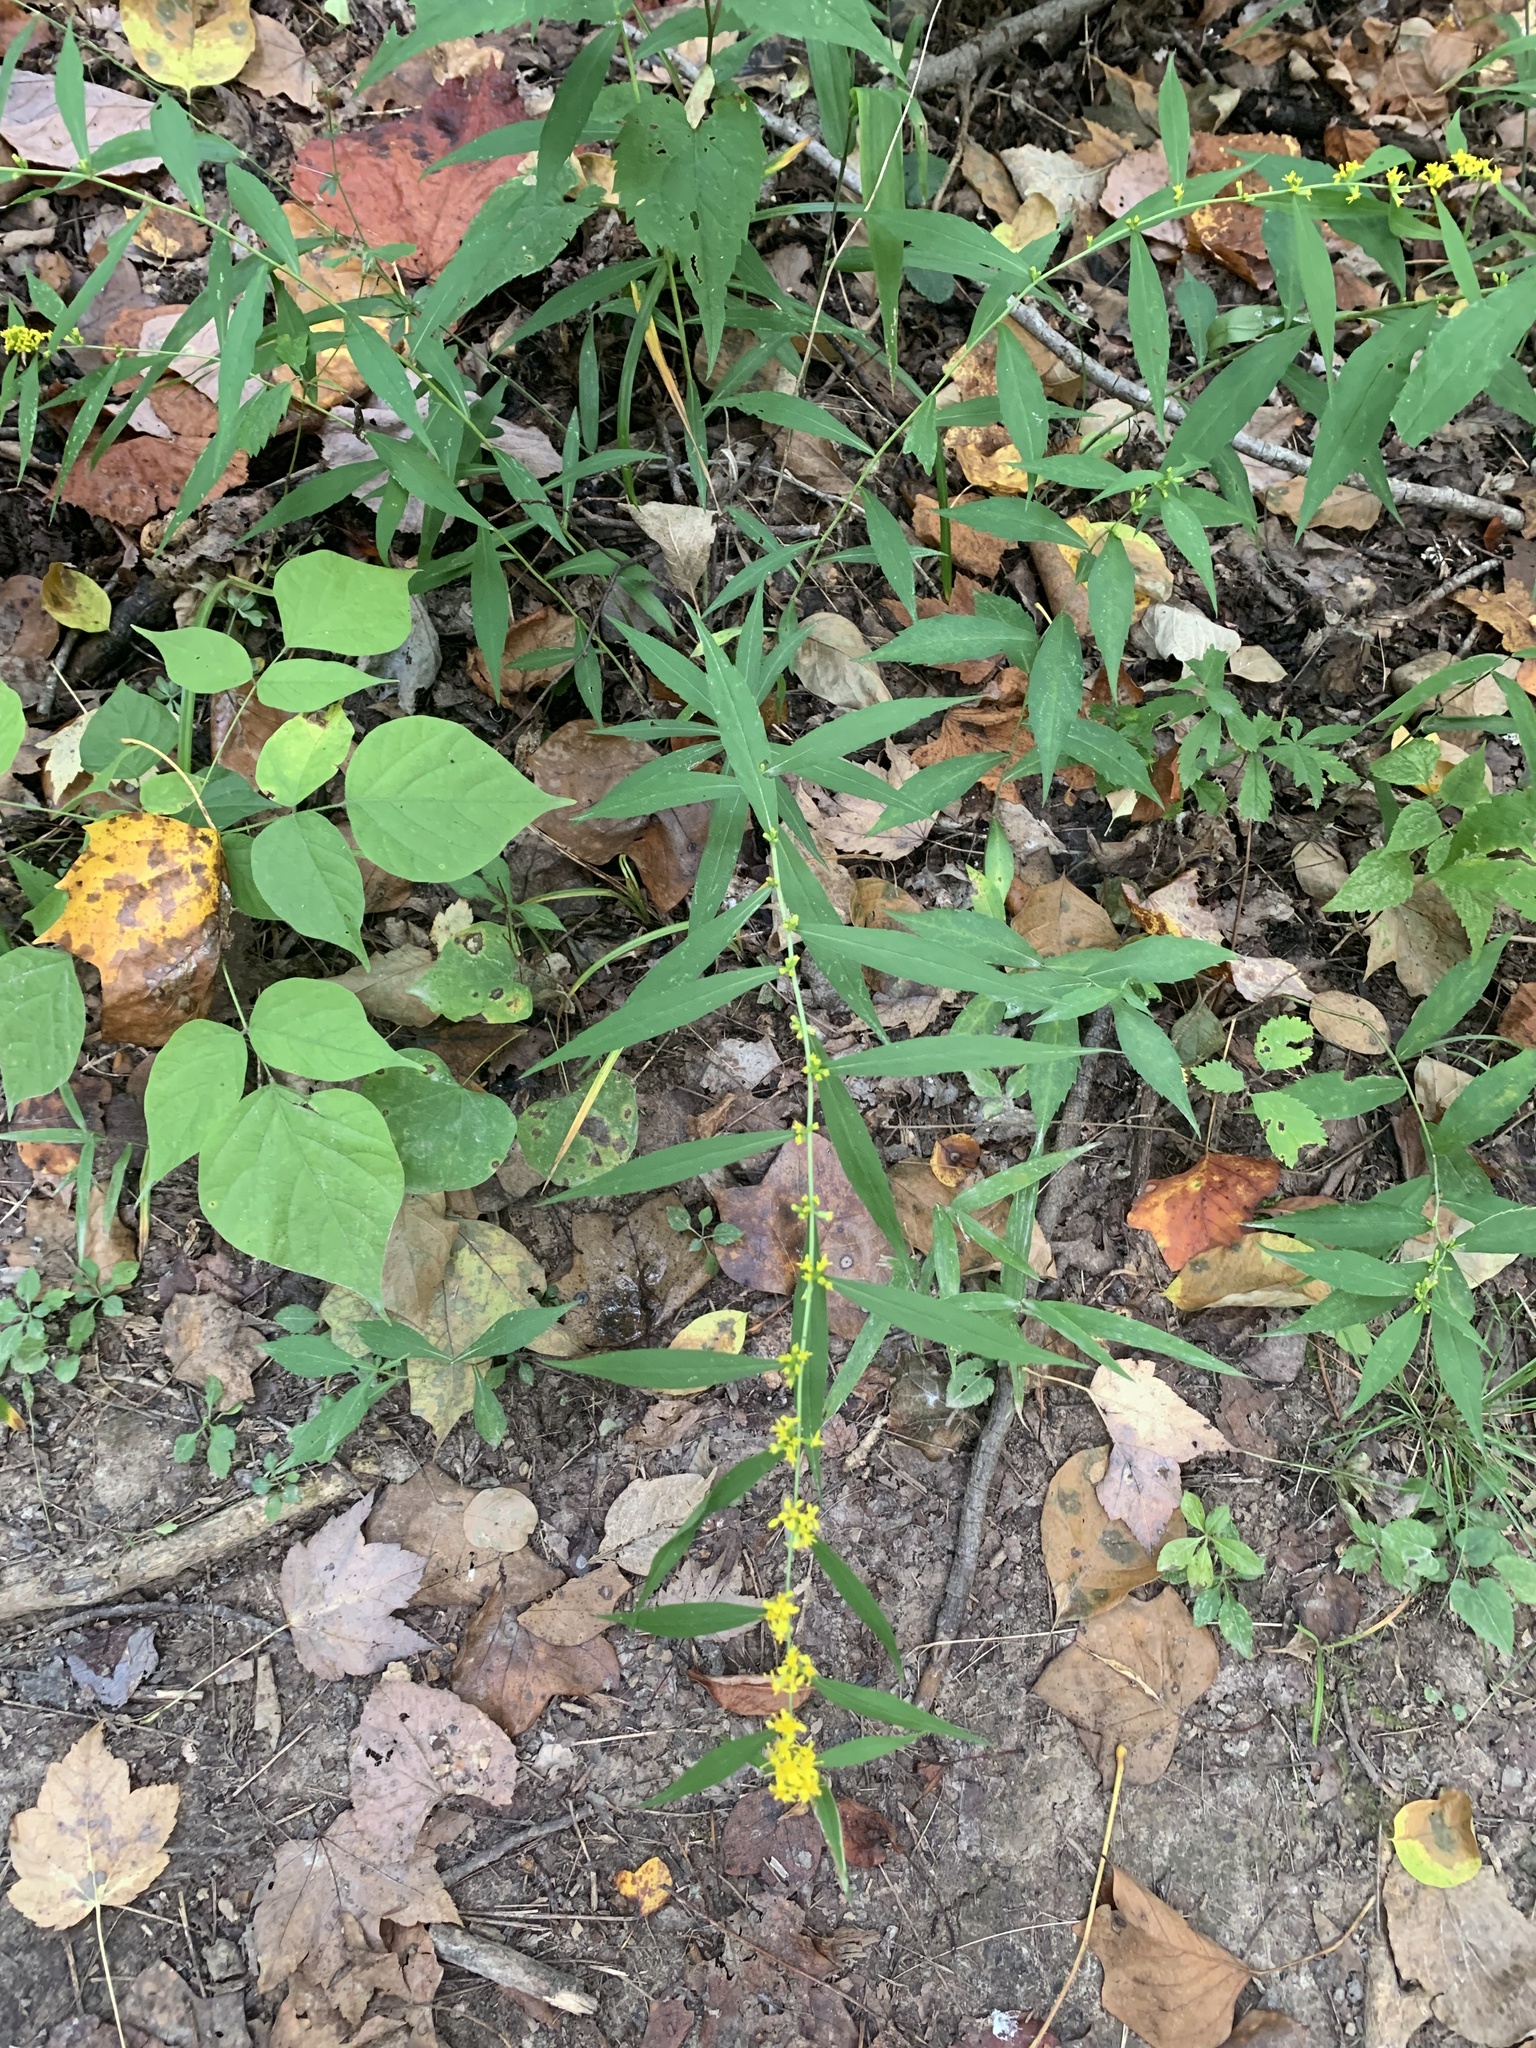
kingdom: Plantae
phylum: Tracheophyta
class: Magnoliopsida
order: Asterales
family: Asteraceae
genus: Solidago
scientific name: Solidago caesia
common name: Woodland goldenrod
